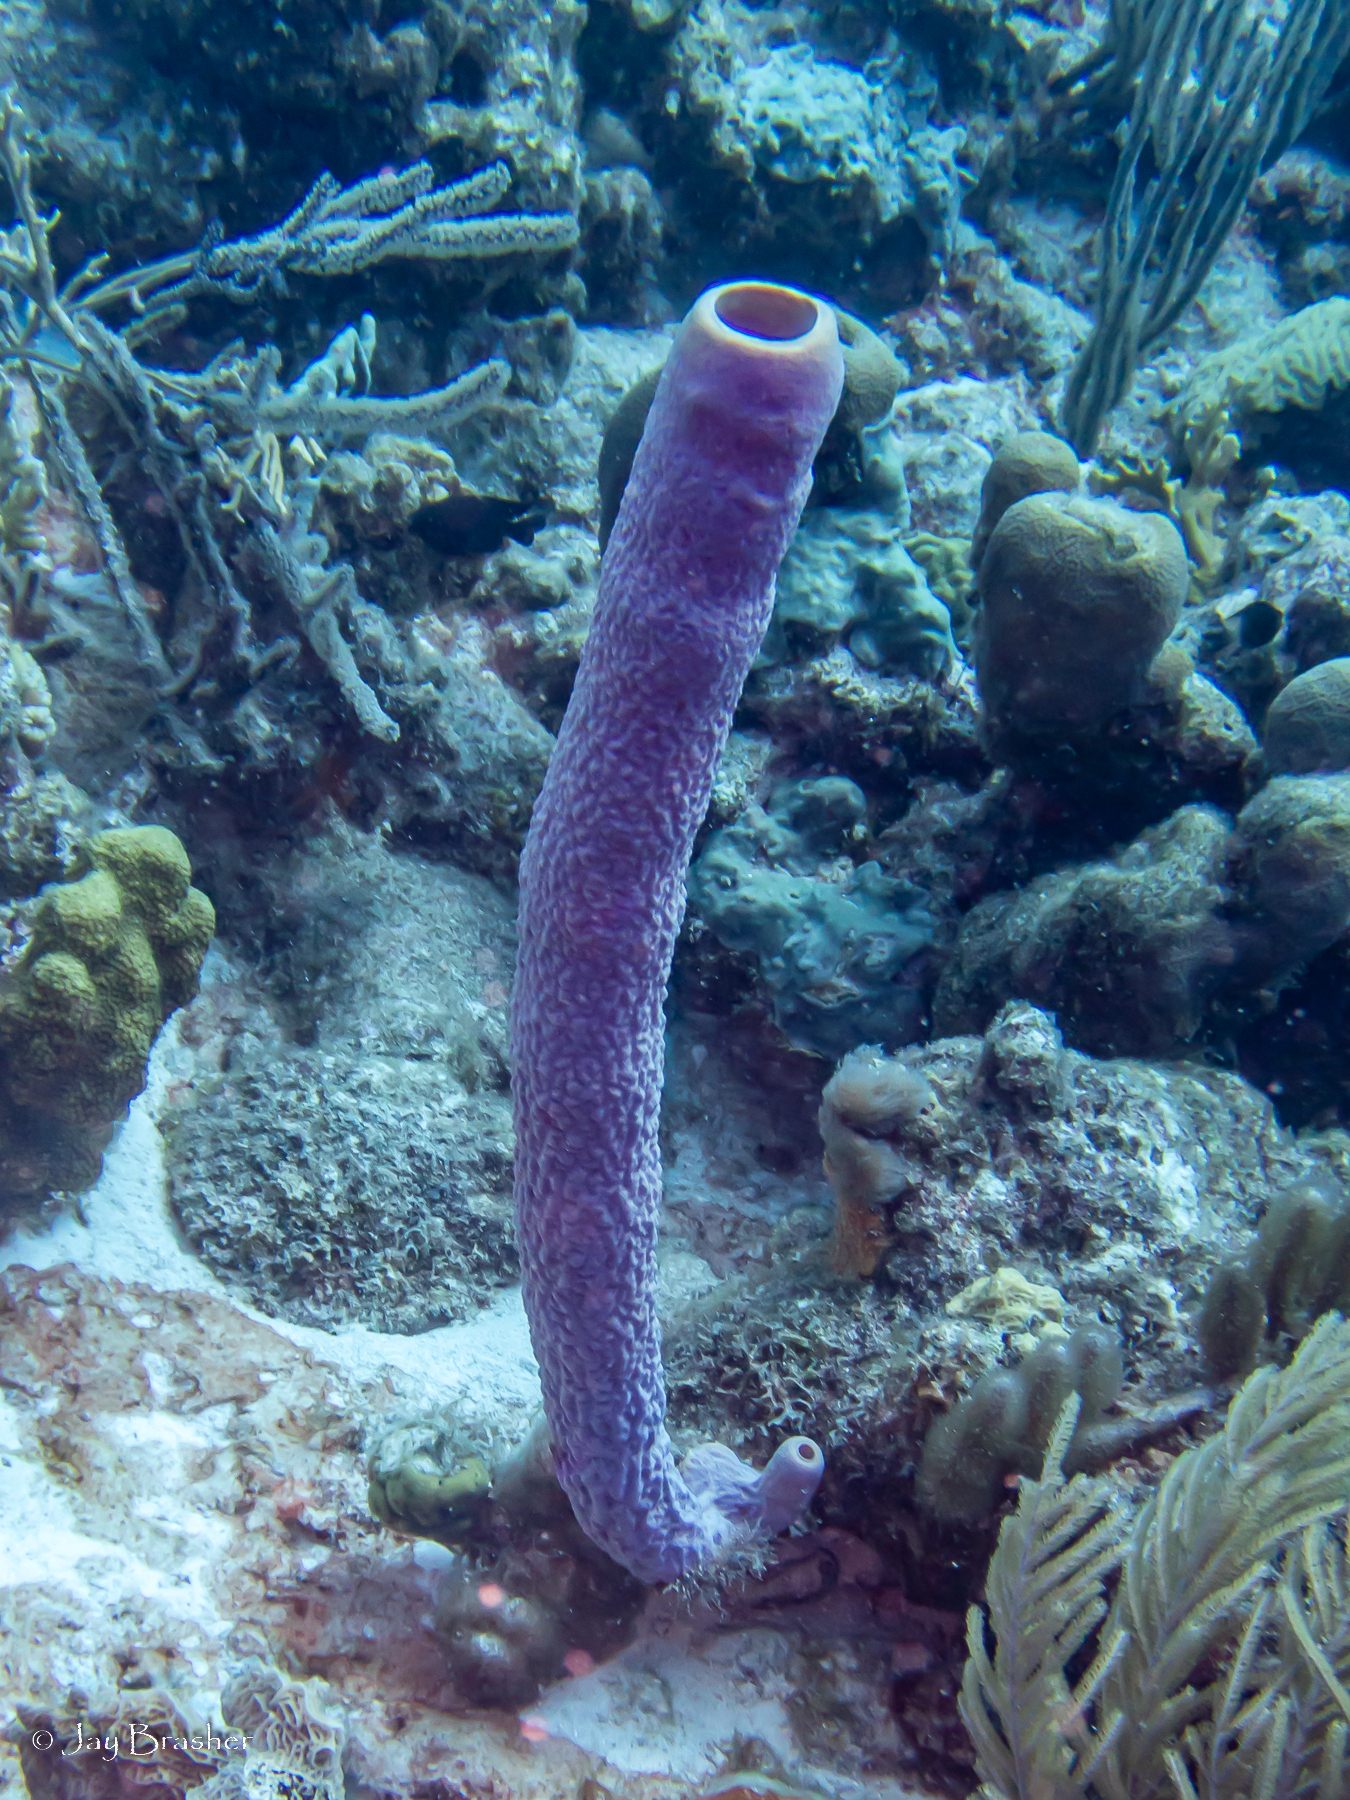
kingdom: Animalia
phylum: Porifera
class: Demospongiae
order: Verongiida
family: Aplysinidae
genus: Aplysina
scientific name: Aplysina archeri
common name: Stove-pipe sponge
